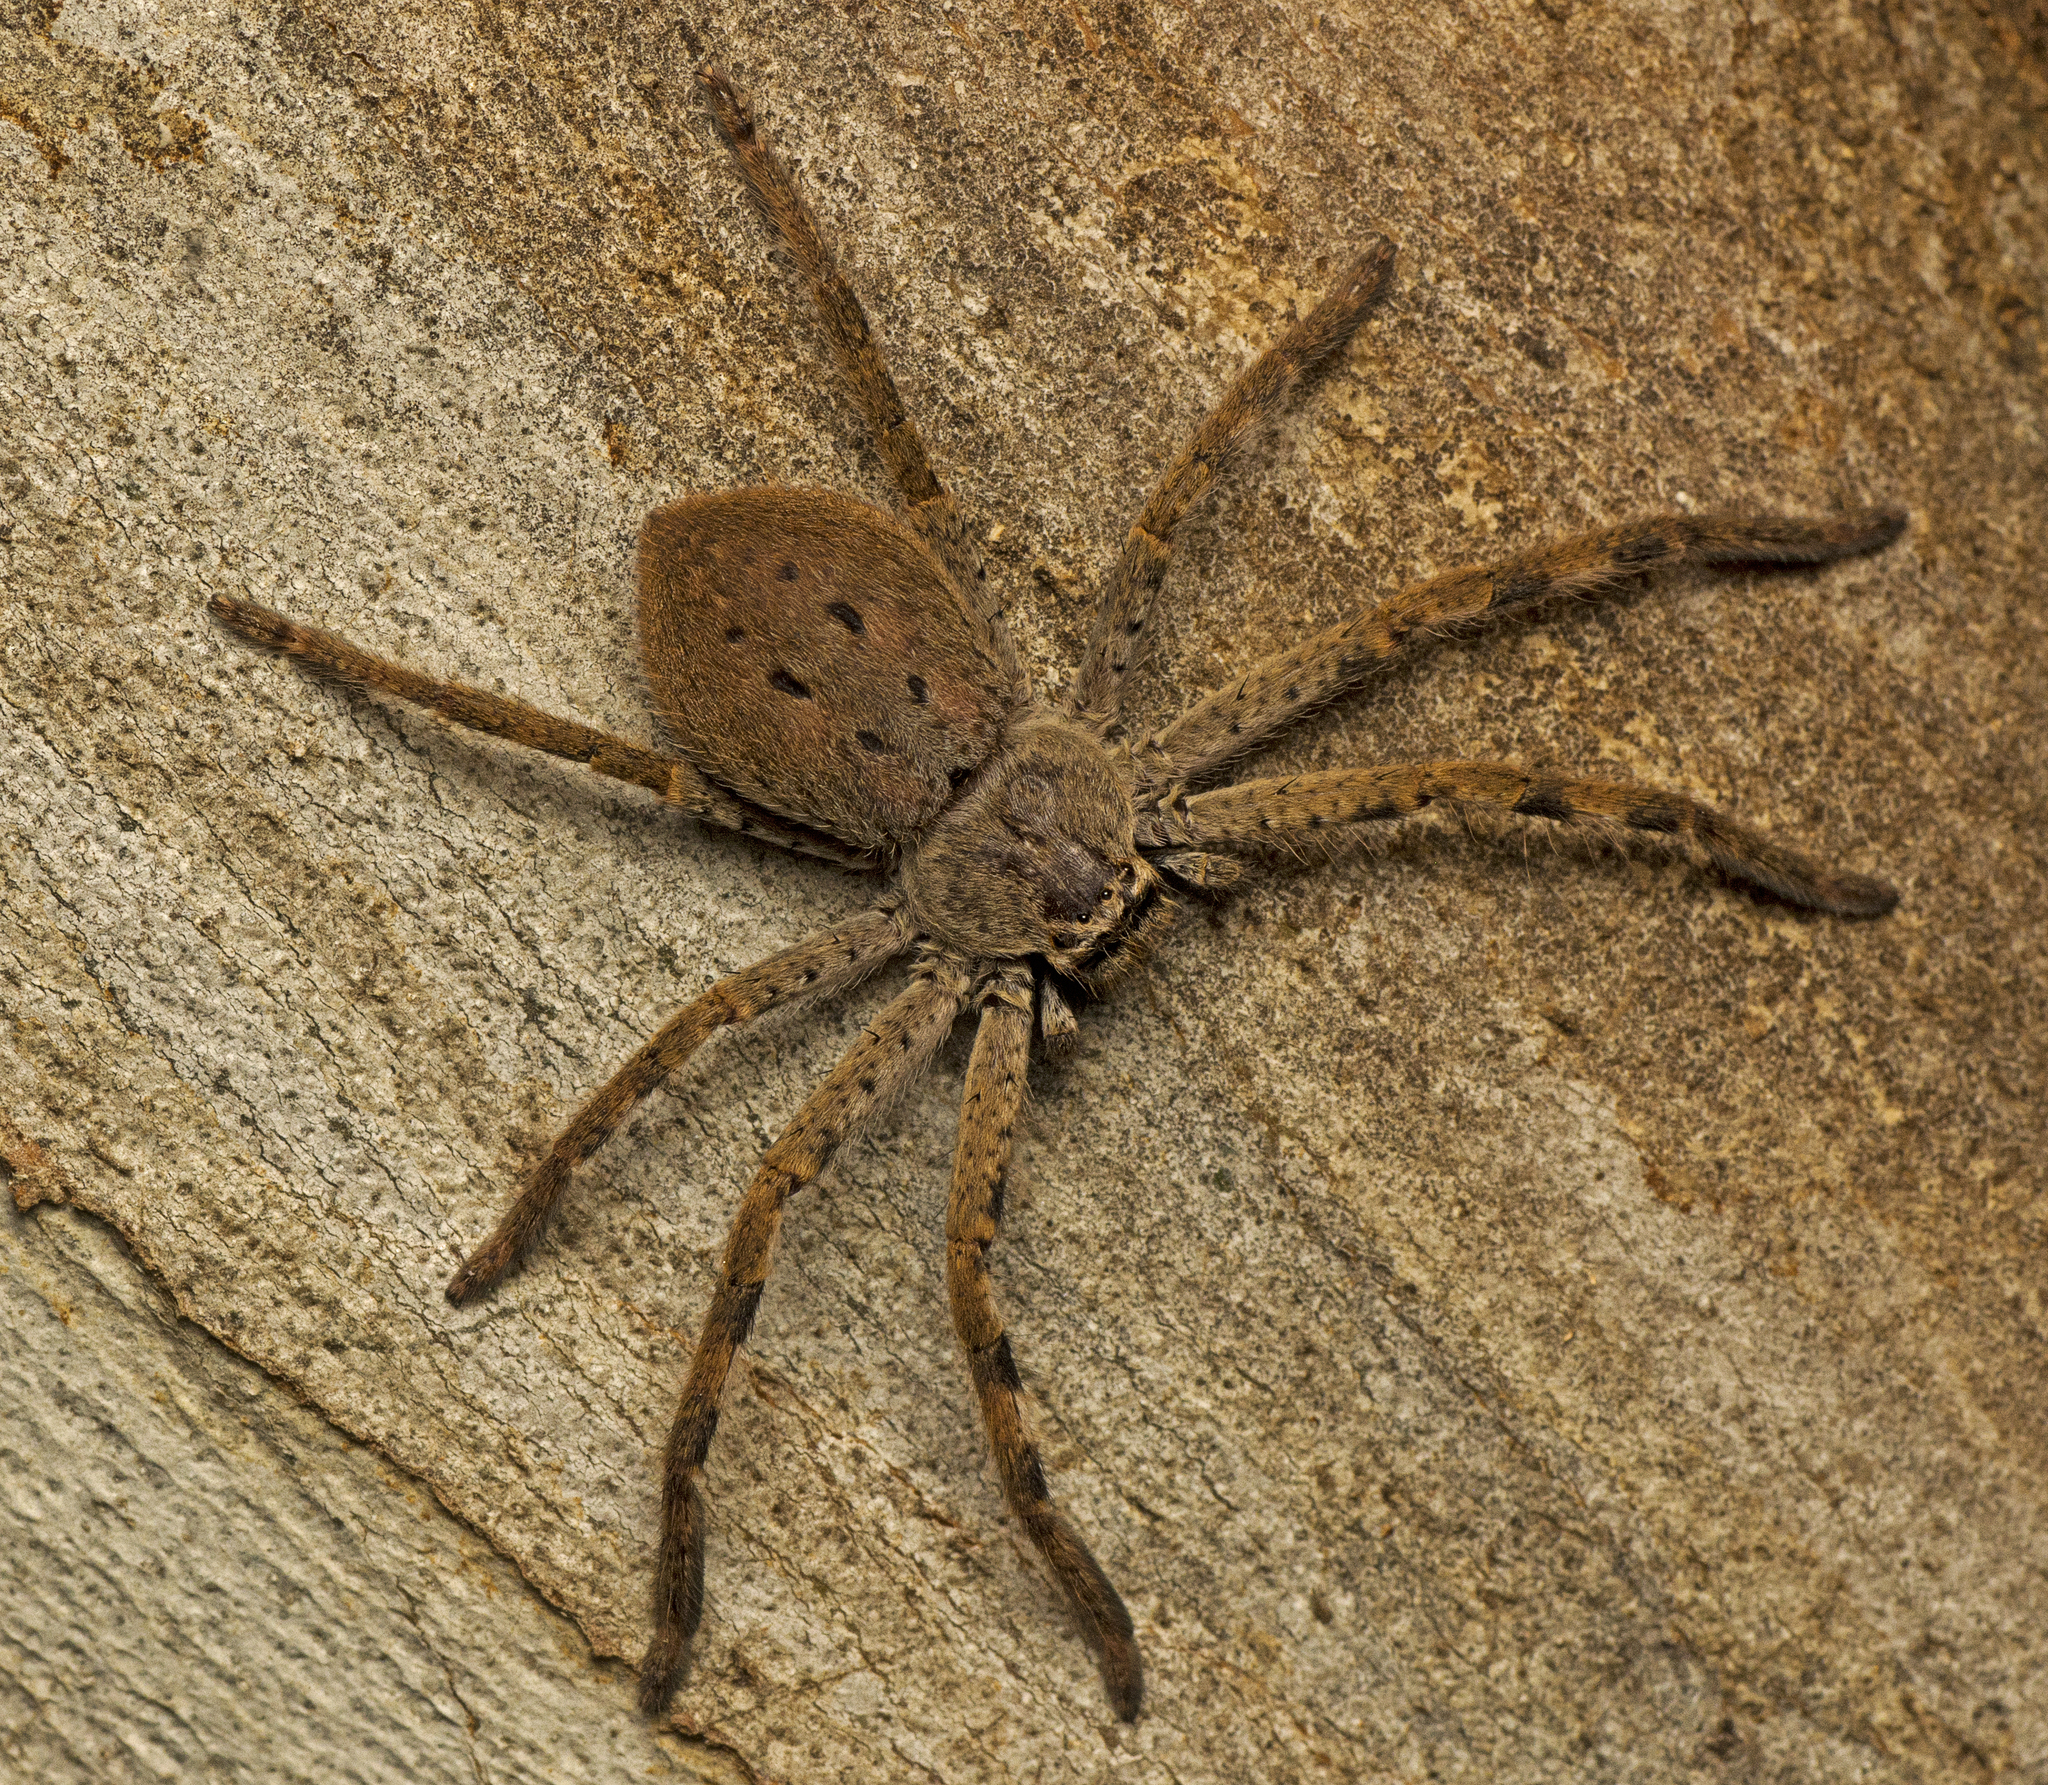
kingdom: Animalia
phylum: Arthropoda
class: Arachnida
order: Araneae
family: Sparassidae
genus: Isopedella
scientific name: Isopedella pessleri
